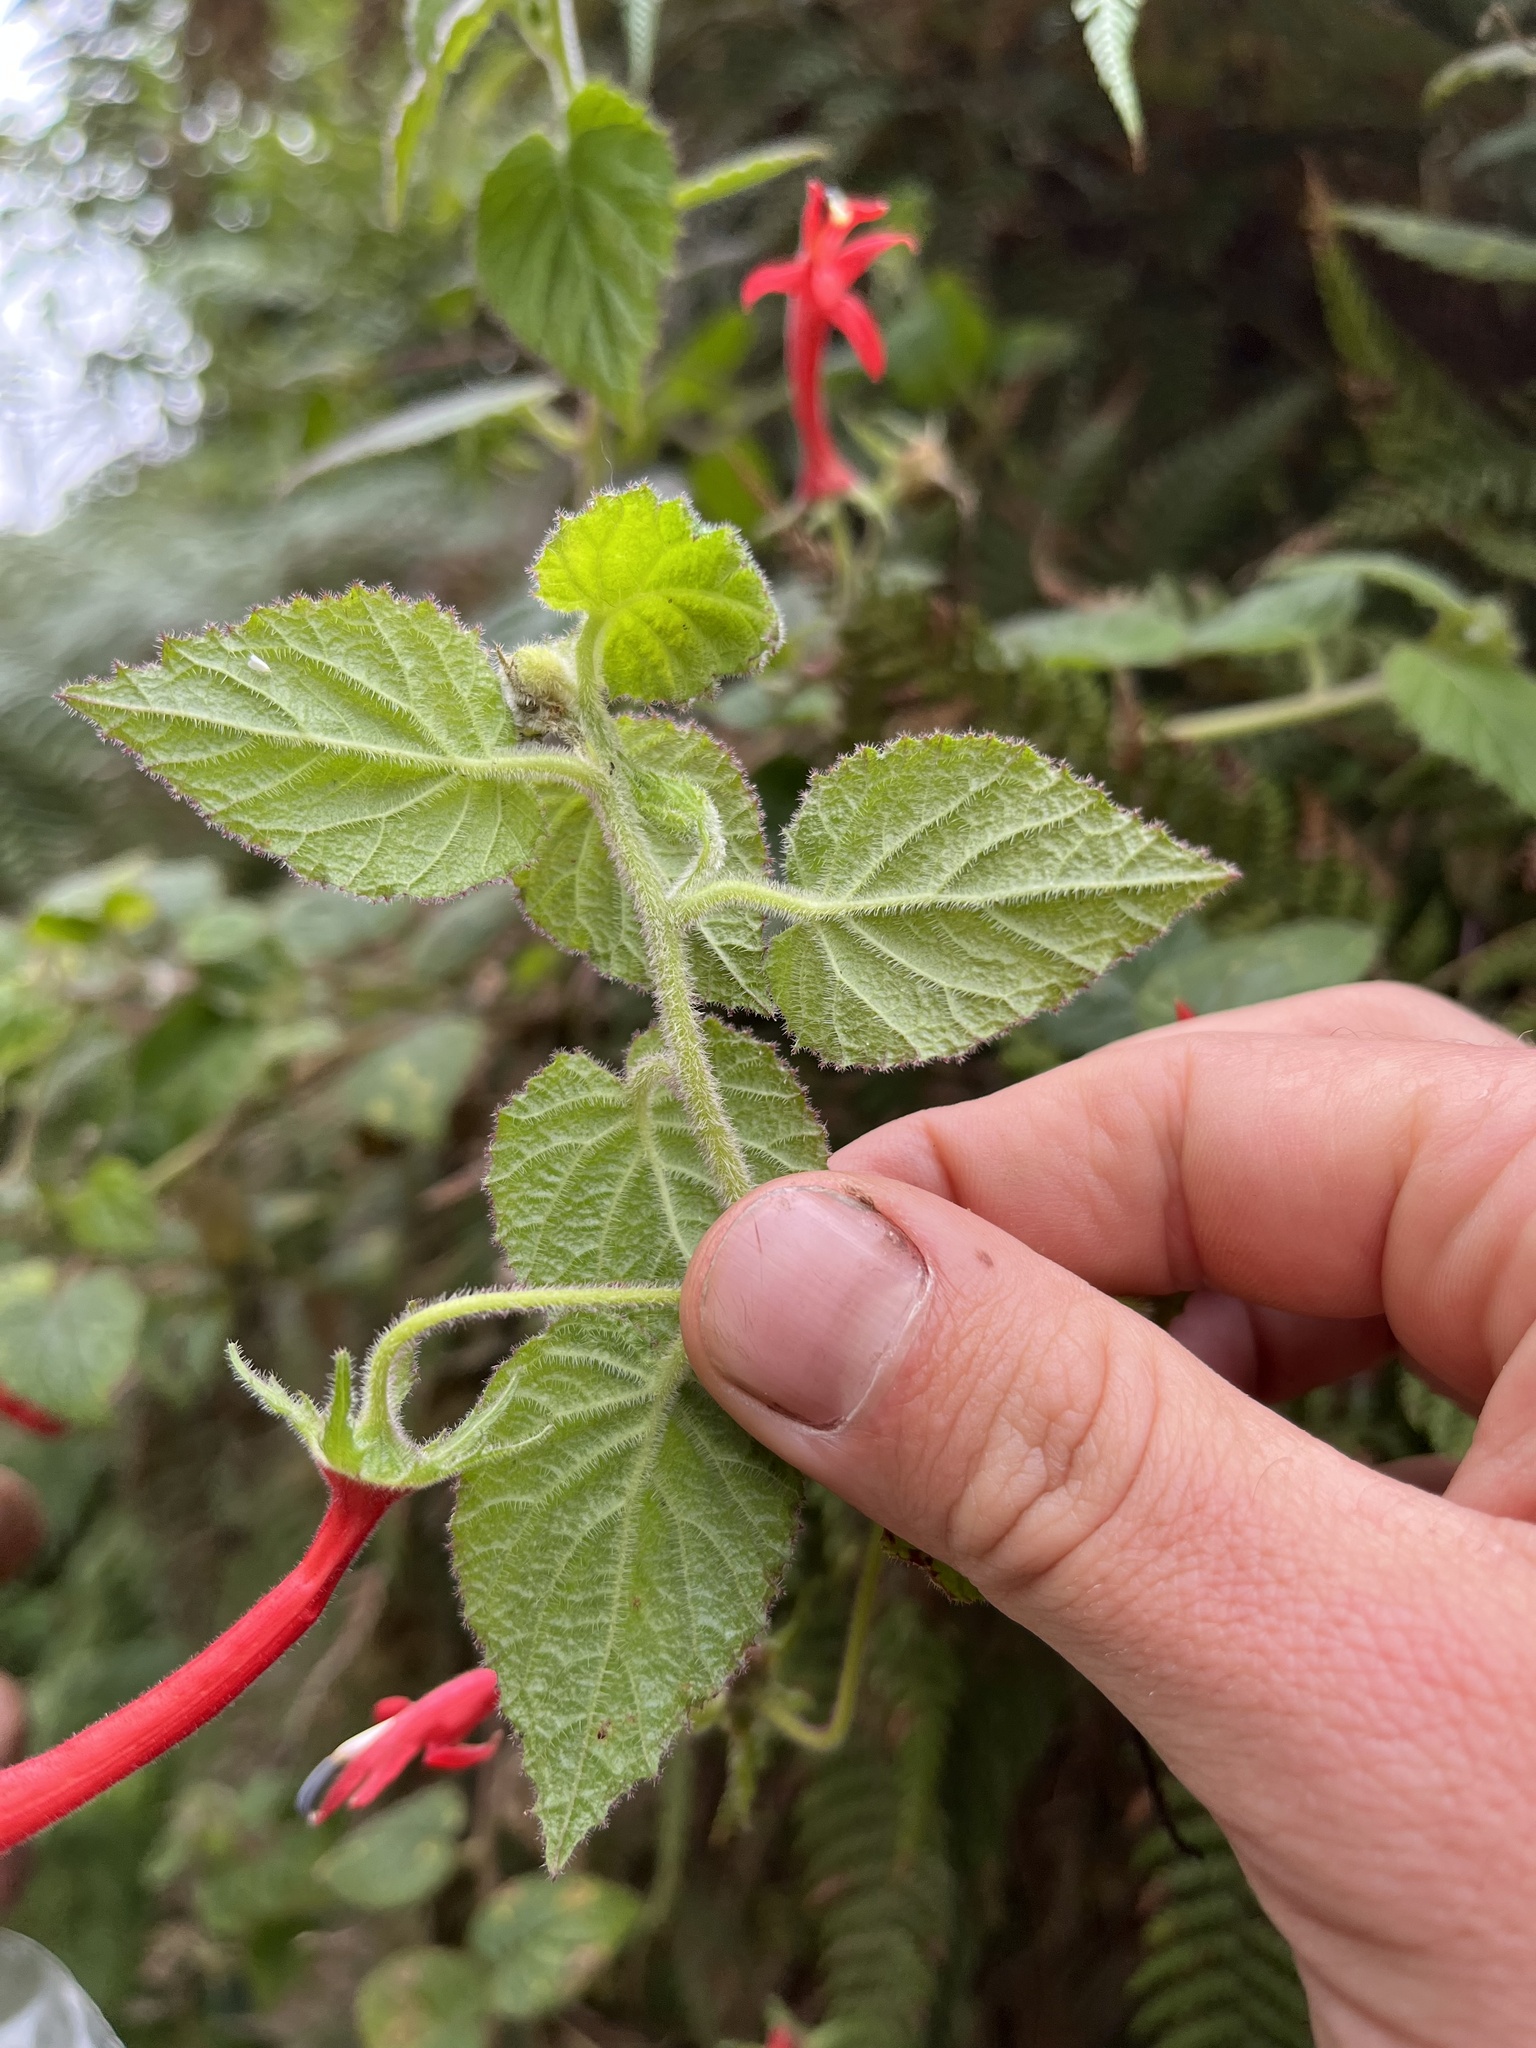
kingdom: Plantae
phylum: Tracheophyta
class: Magnoliopsida
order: Asterales
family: Campanulaceae
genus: Siphocampylus
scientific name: Siphocampylus hispidus
